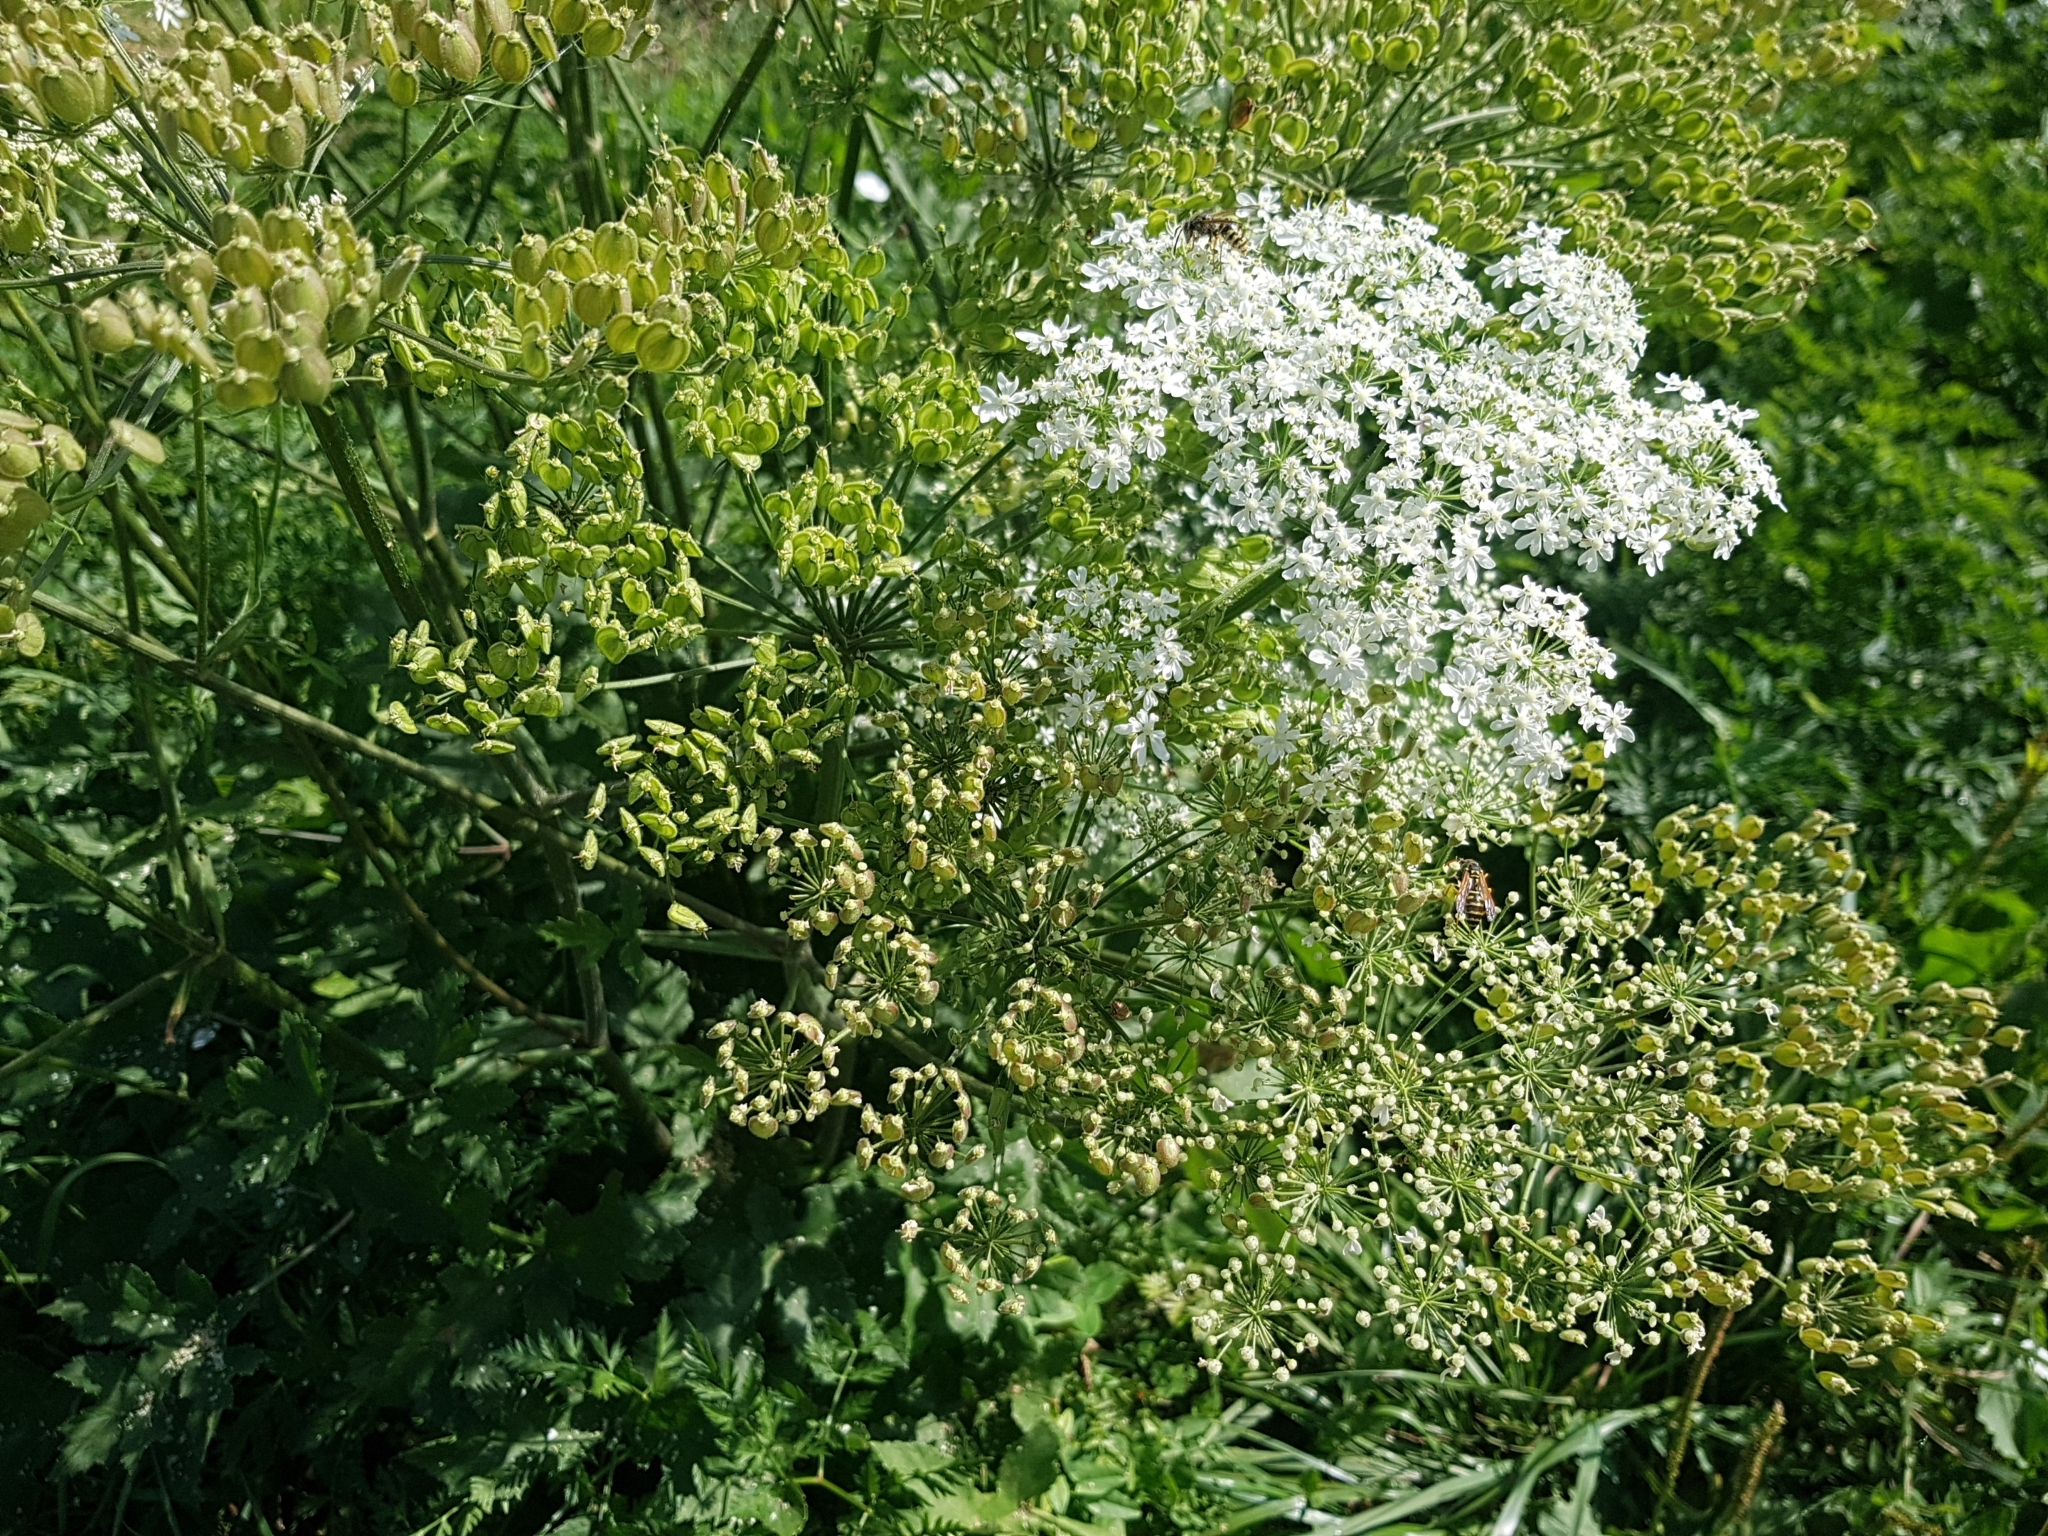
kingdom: Plantae
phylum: Tracheophyta
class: Magnoliopsida
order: Apiales
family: Apiaceae
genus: Heracleum
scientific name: Heracleum sphondylium
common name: Hogweed
